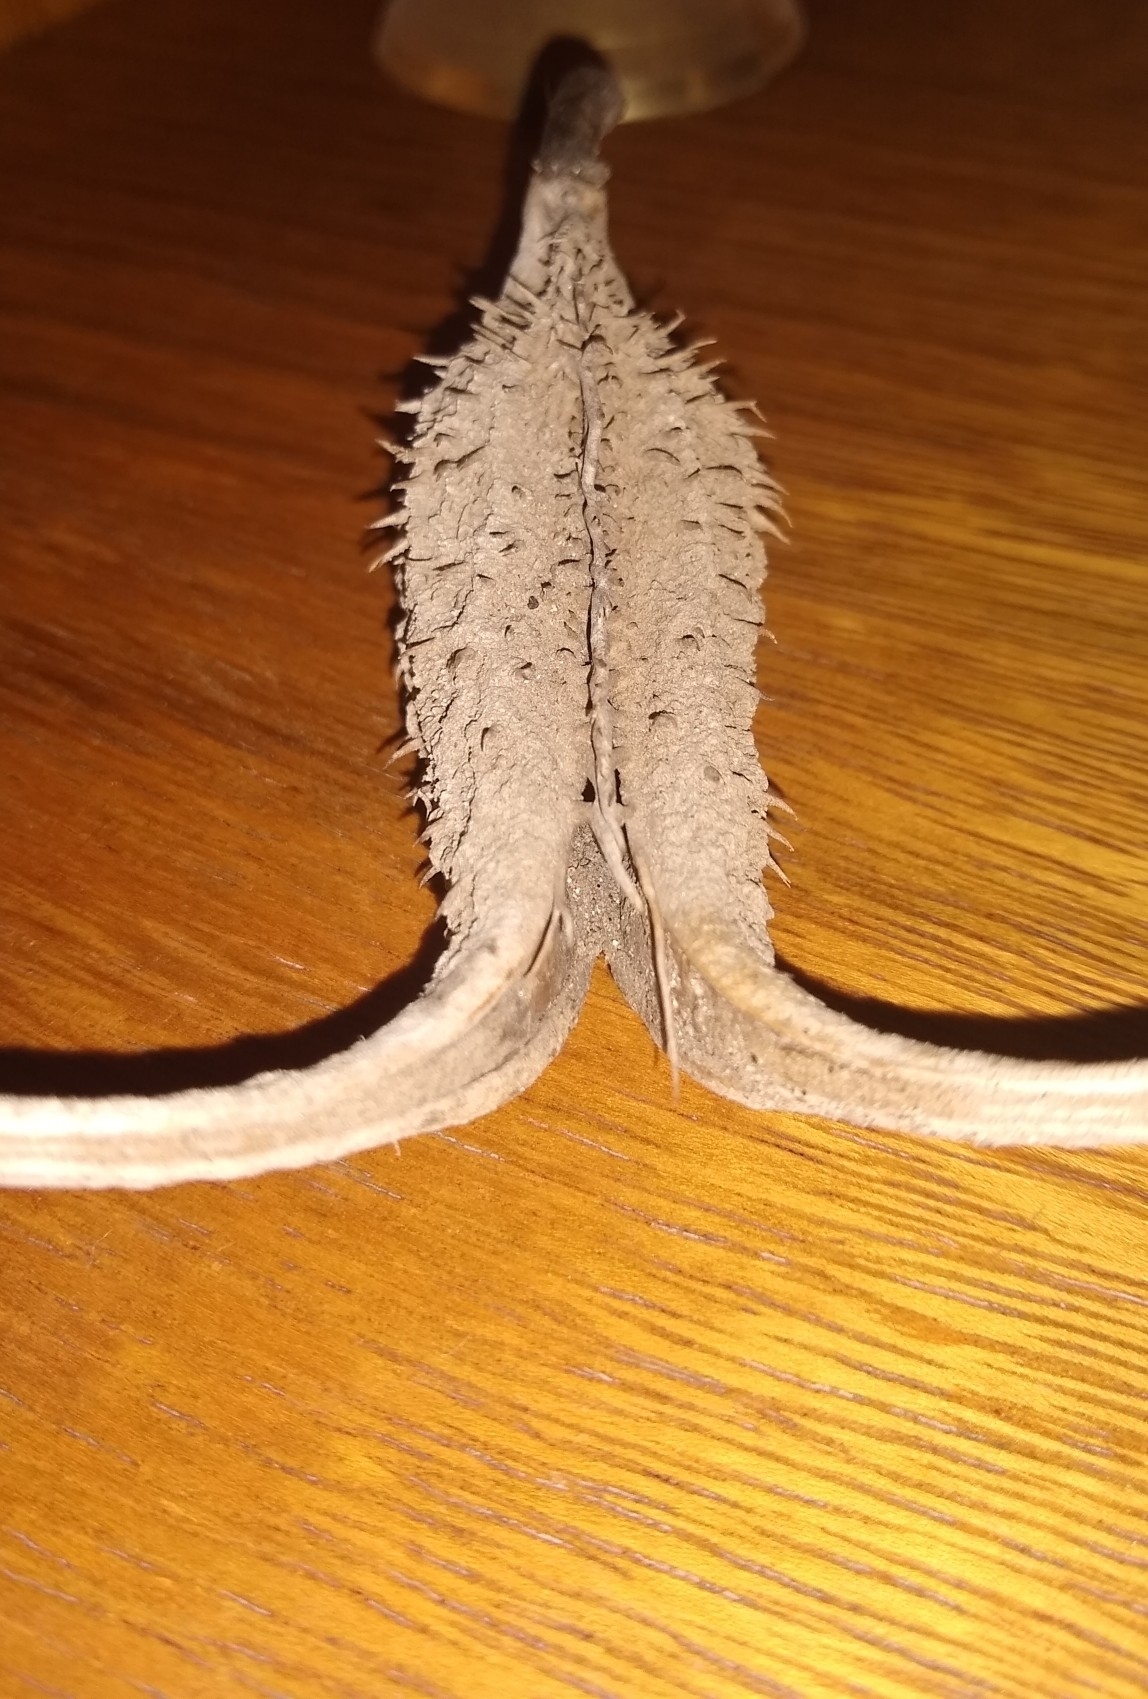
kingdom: Plantae
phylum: Tracheophyta
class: Magnoliopsida
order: Lamiales
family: Martyniaceae
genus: Ibicella
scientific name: Ibicella lutea
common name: Yellow unicorn-plant
